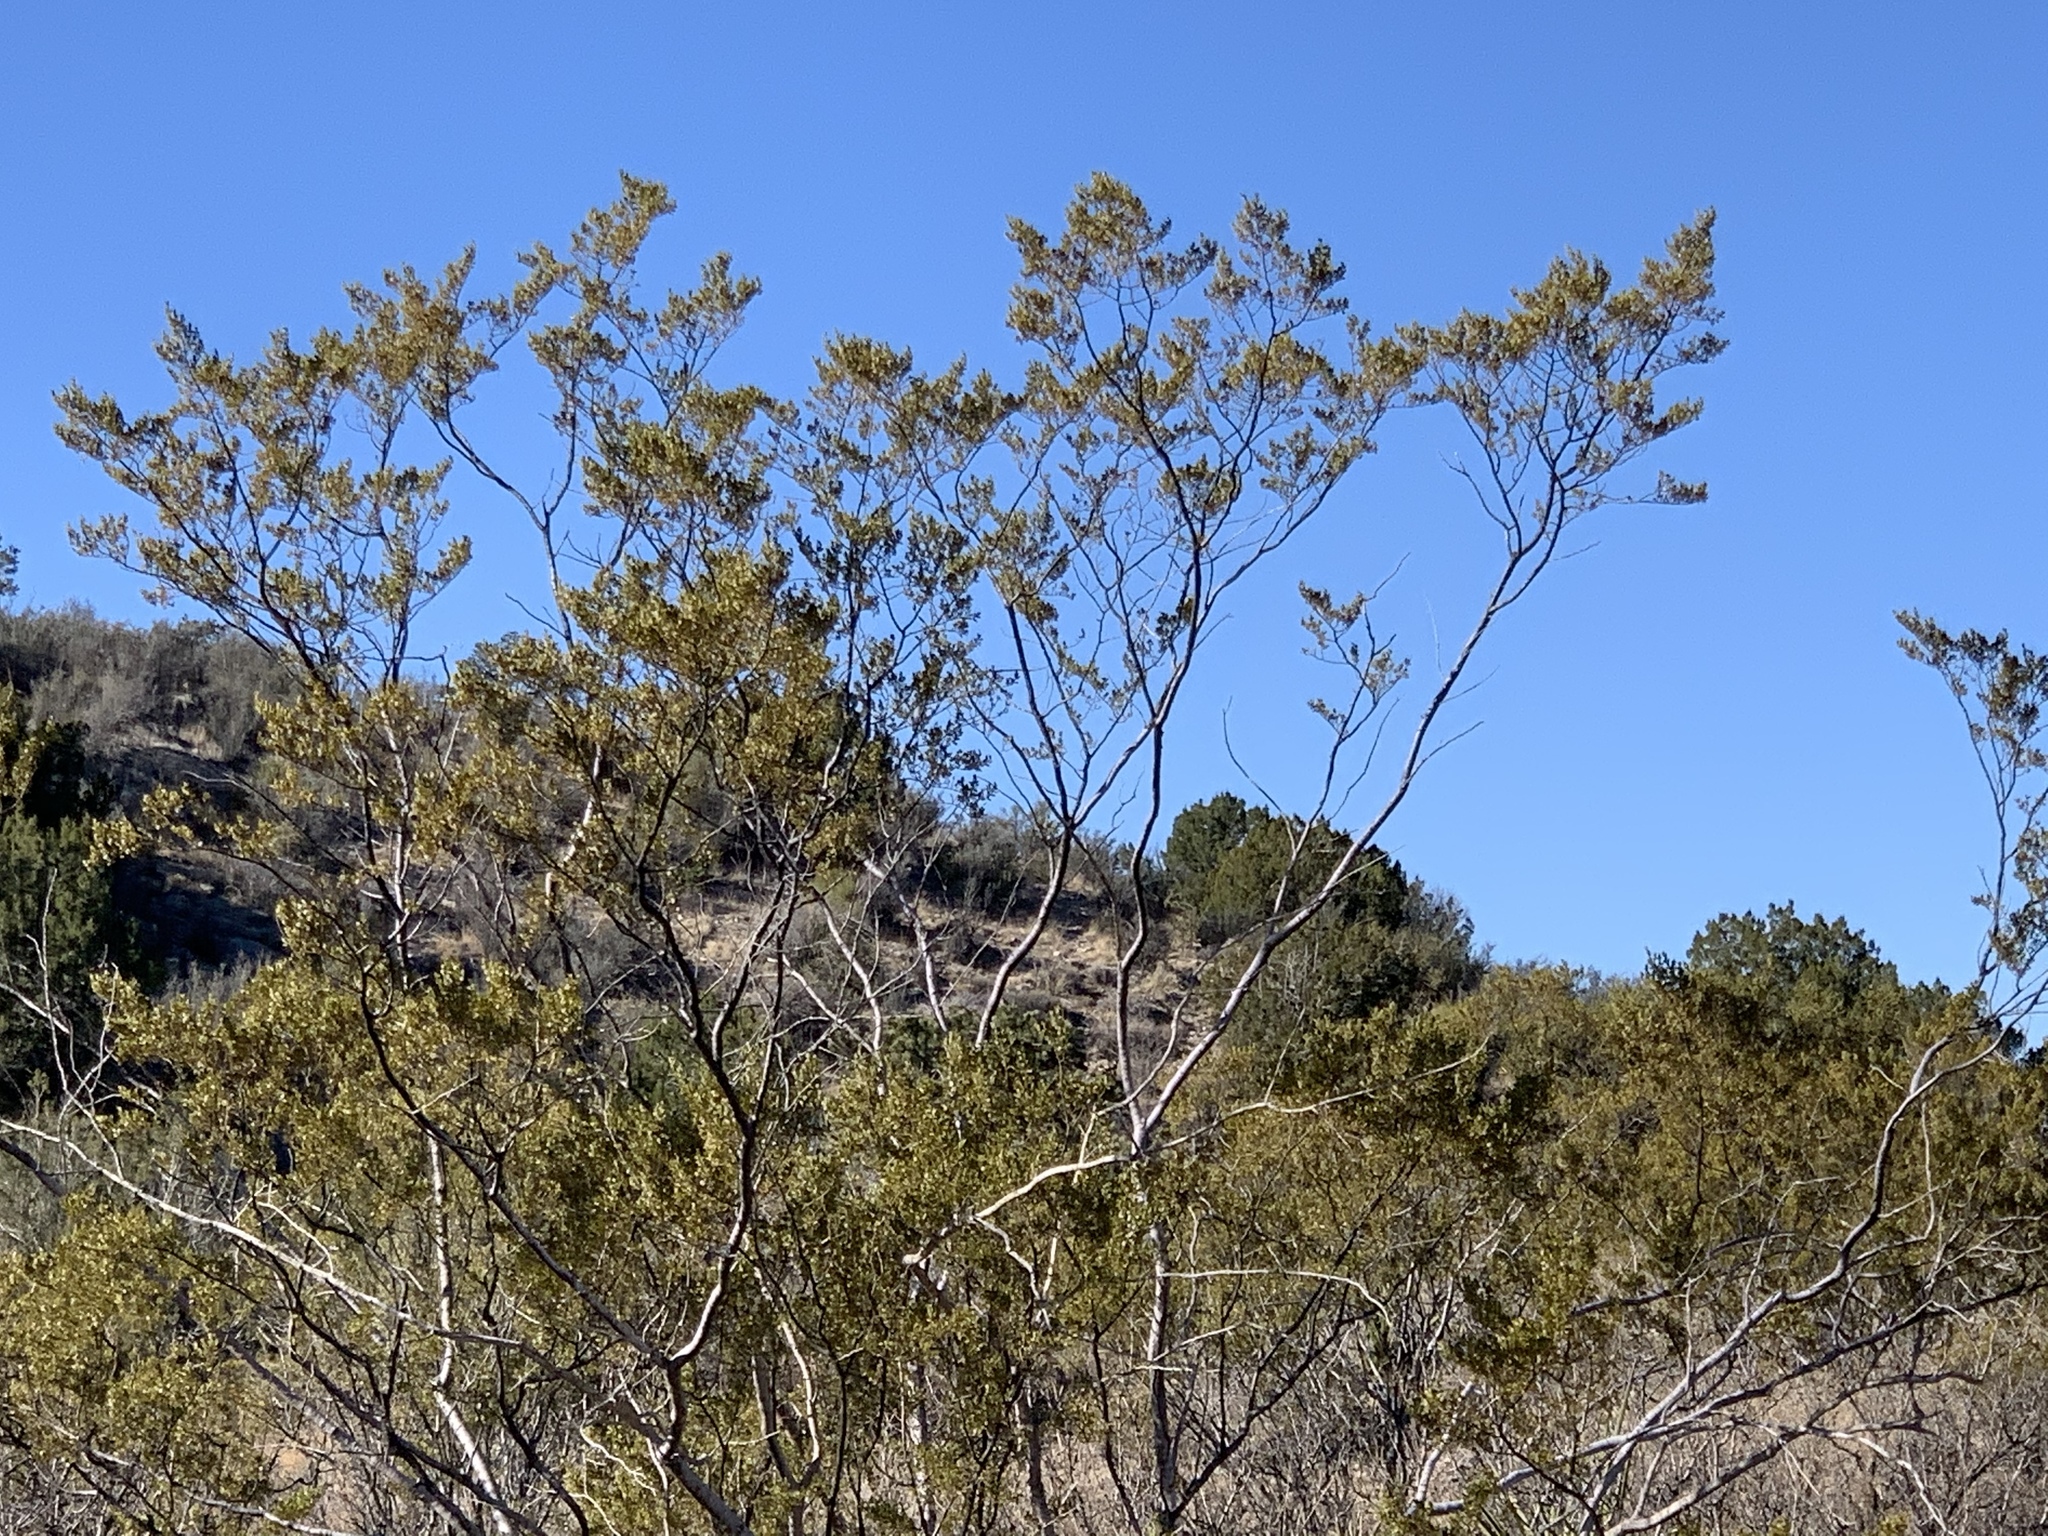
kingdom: Plantae
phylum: Tracheophyta
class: Magnoliopsida
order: Zygophyllales
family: Zygophyllaceae
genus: Larrea
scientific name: Larrea tridentata
